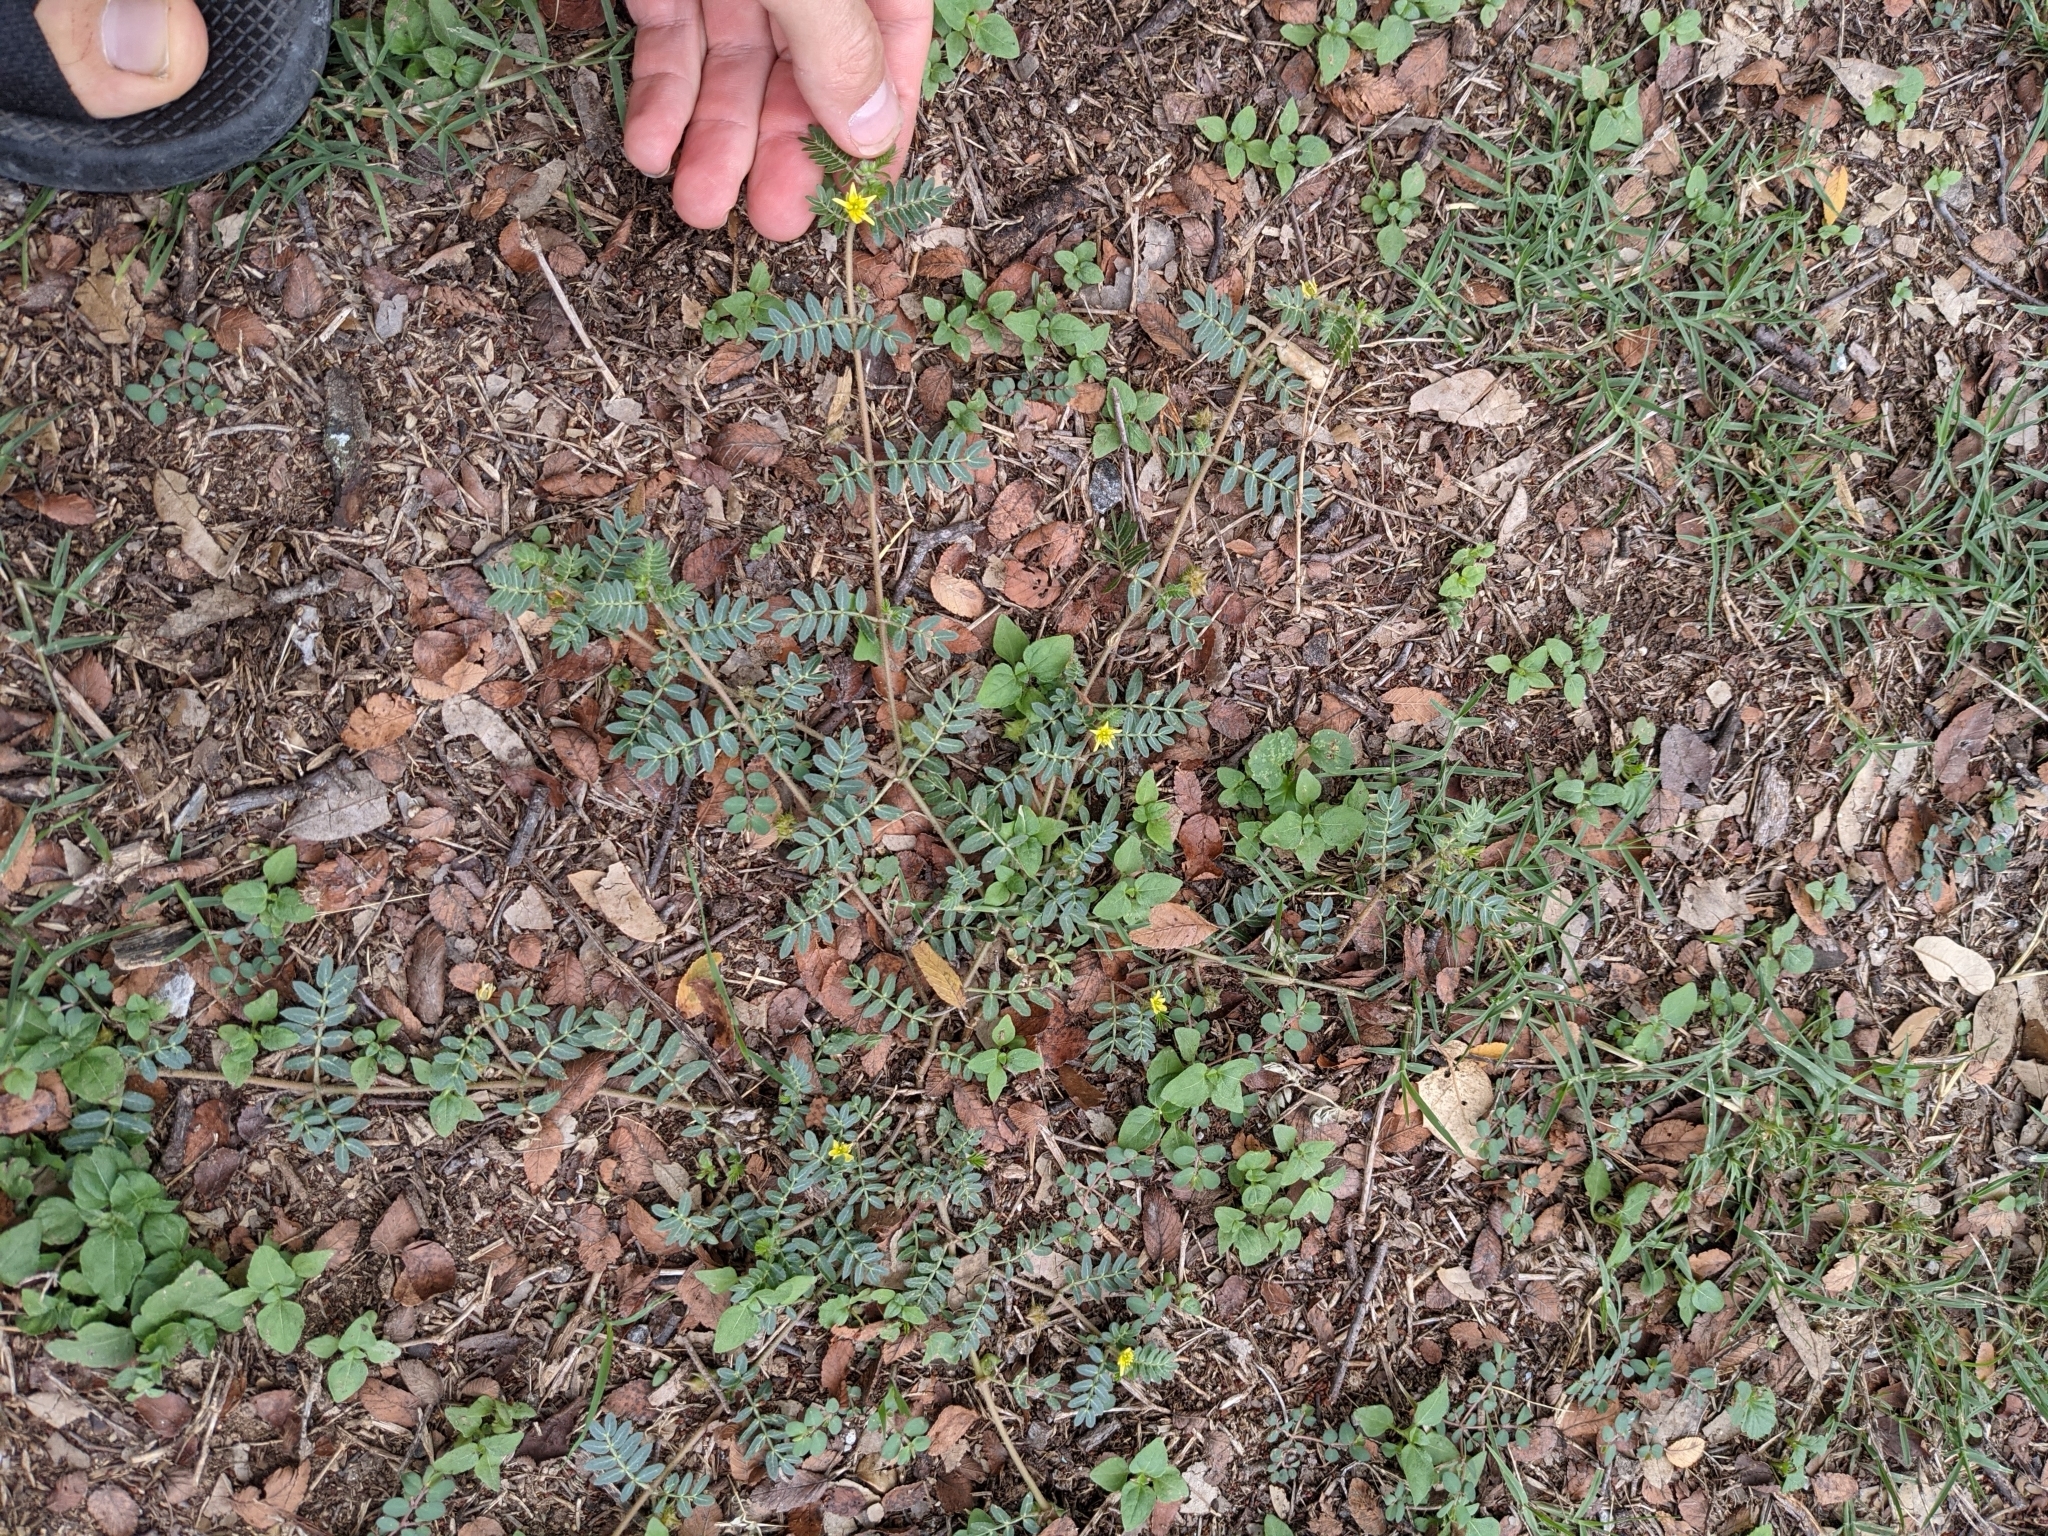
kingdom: Plantae
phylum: Tracheophyta
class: Magnoliopsida
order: Zygophyllales
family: Zygophyllaceae
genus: Tribulus
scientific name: Tribulus terrestris
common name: Puncturevine
